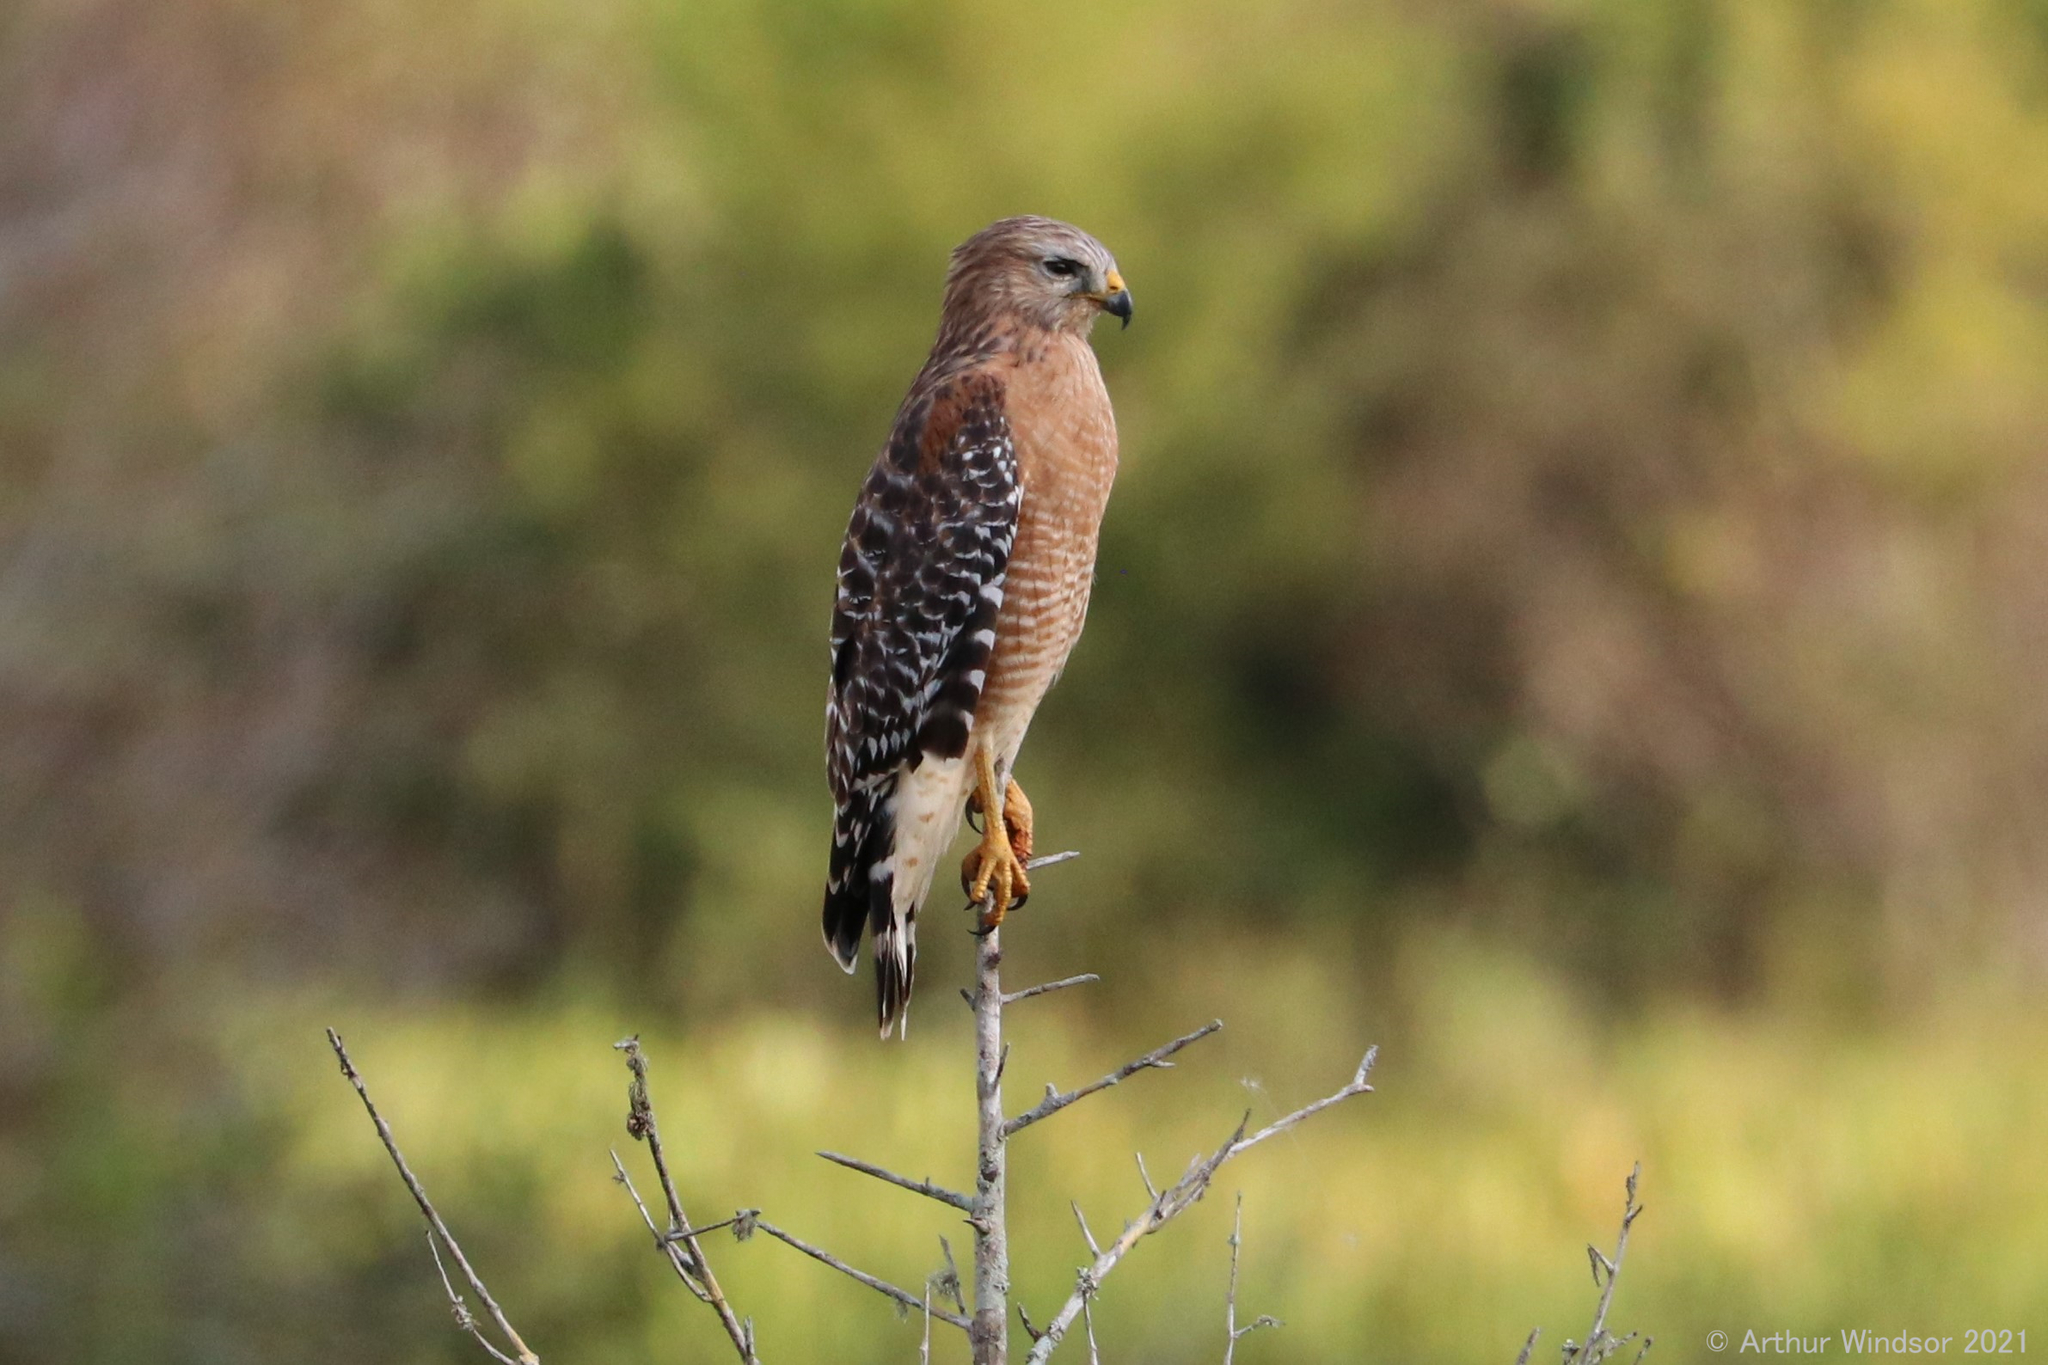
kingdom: Animalia
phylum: Chordata
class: Aves
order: Accipitriformes
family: Accipitridae
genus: Buteo
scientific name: Buteo lineatus
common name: Red-shouldered hawk
